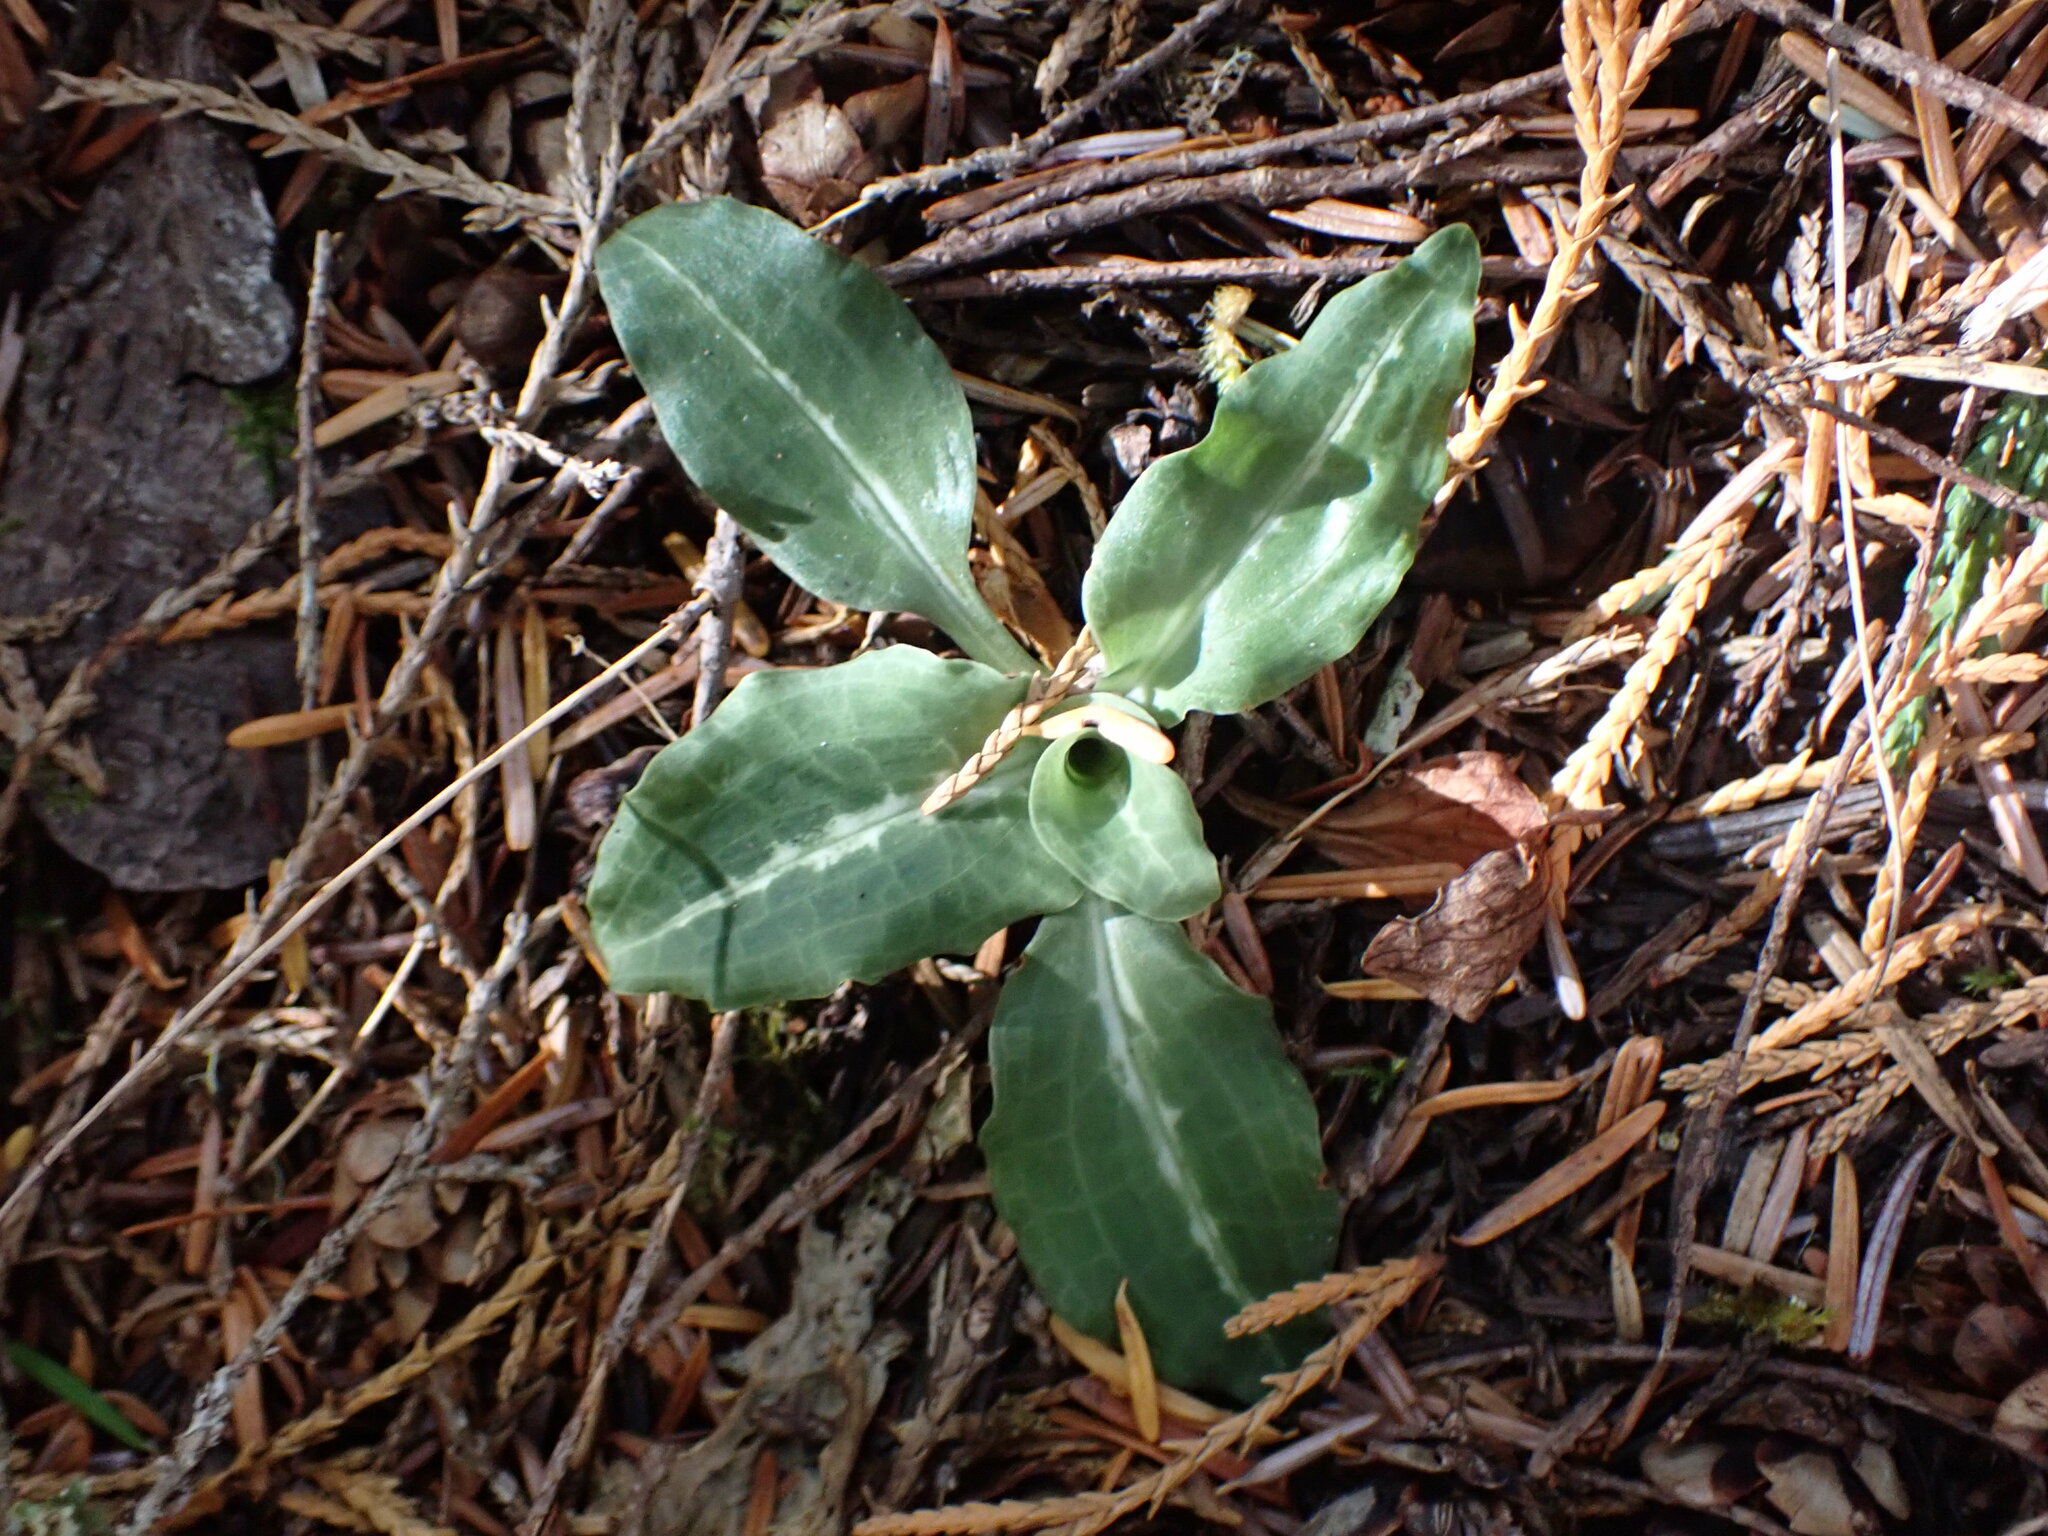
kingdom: Plantae
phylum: Tracheophyta
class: Liliopsida
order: Asparagales
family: Orchidaceae
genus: Goodyera
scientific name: Goodyera oblongifolia
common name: Giant rattlesnake-plantain
